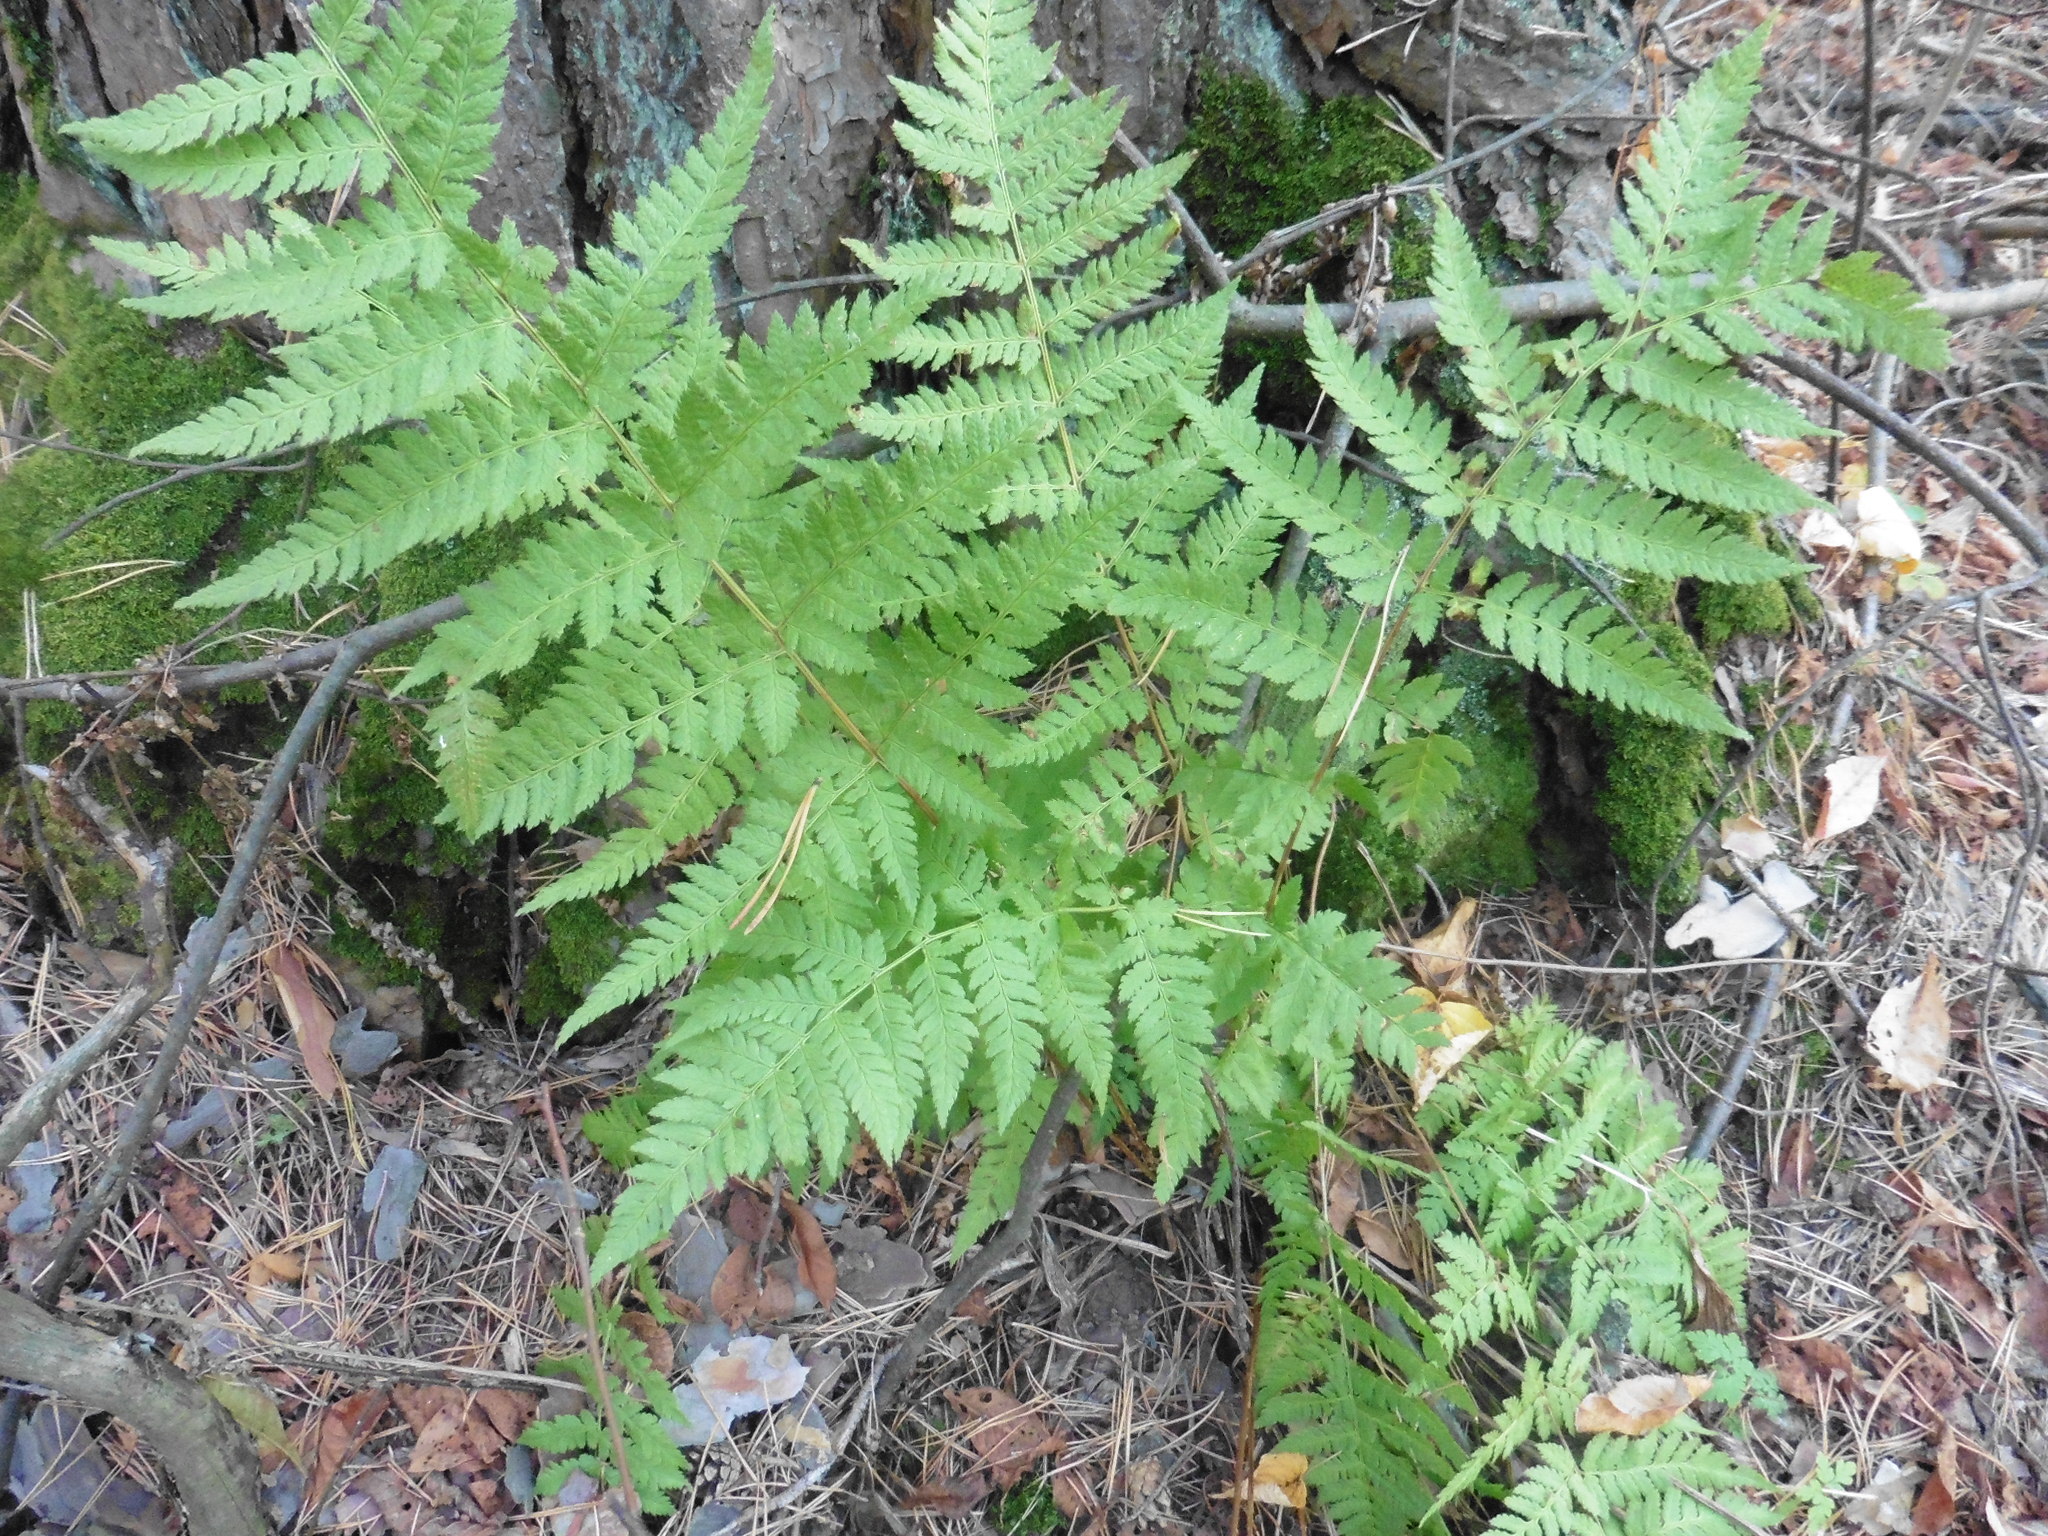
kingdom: Plantae
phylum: Tracheophyta
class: Polypodiopsida
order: Polypodiales
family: Dryopteridaceae
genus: Dryopteris
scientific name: Dryopteris carthusiana
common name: Narrow buckler-fern
